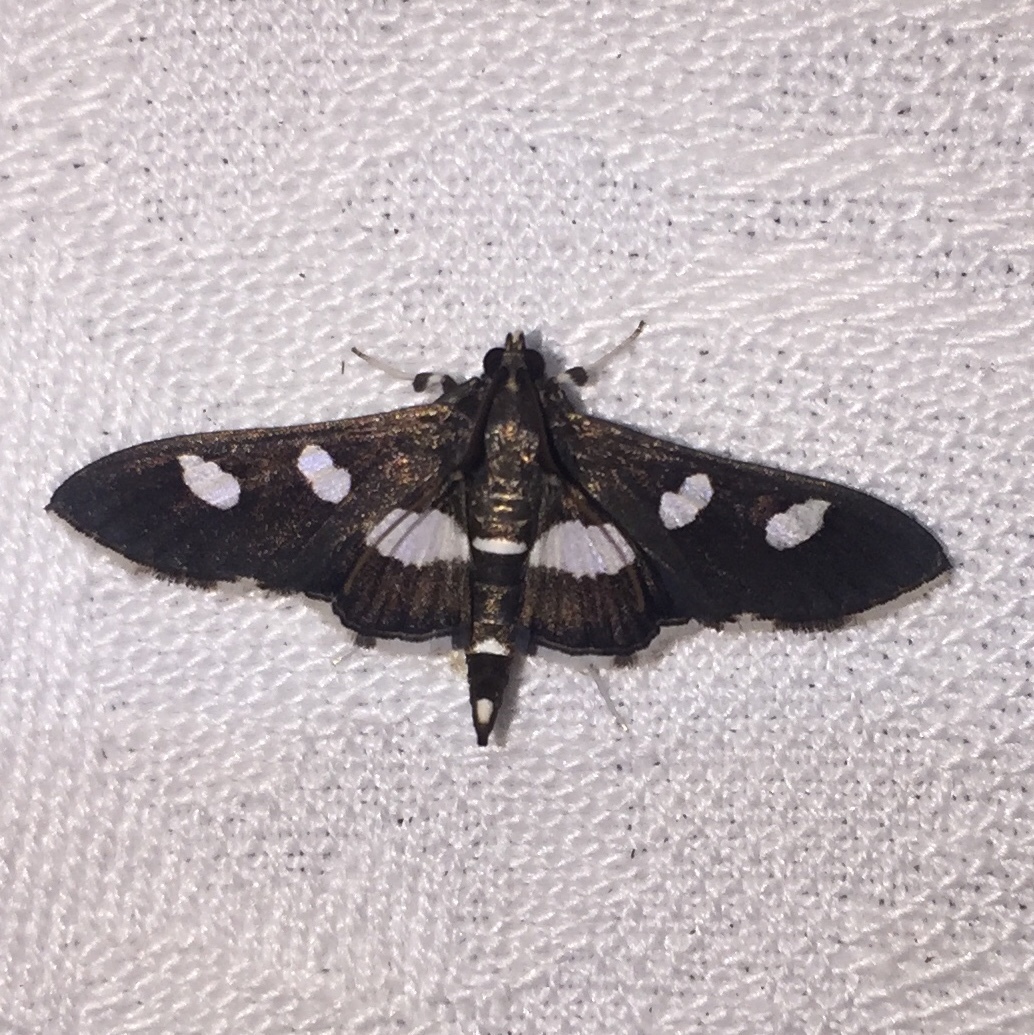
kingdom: Animalia
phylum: Arthropoda
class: Insecta
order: Lepidoptera
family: Crambidae
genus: Desmia
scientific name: Desmia
